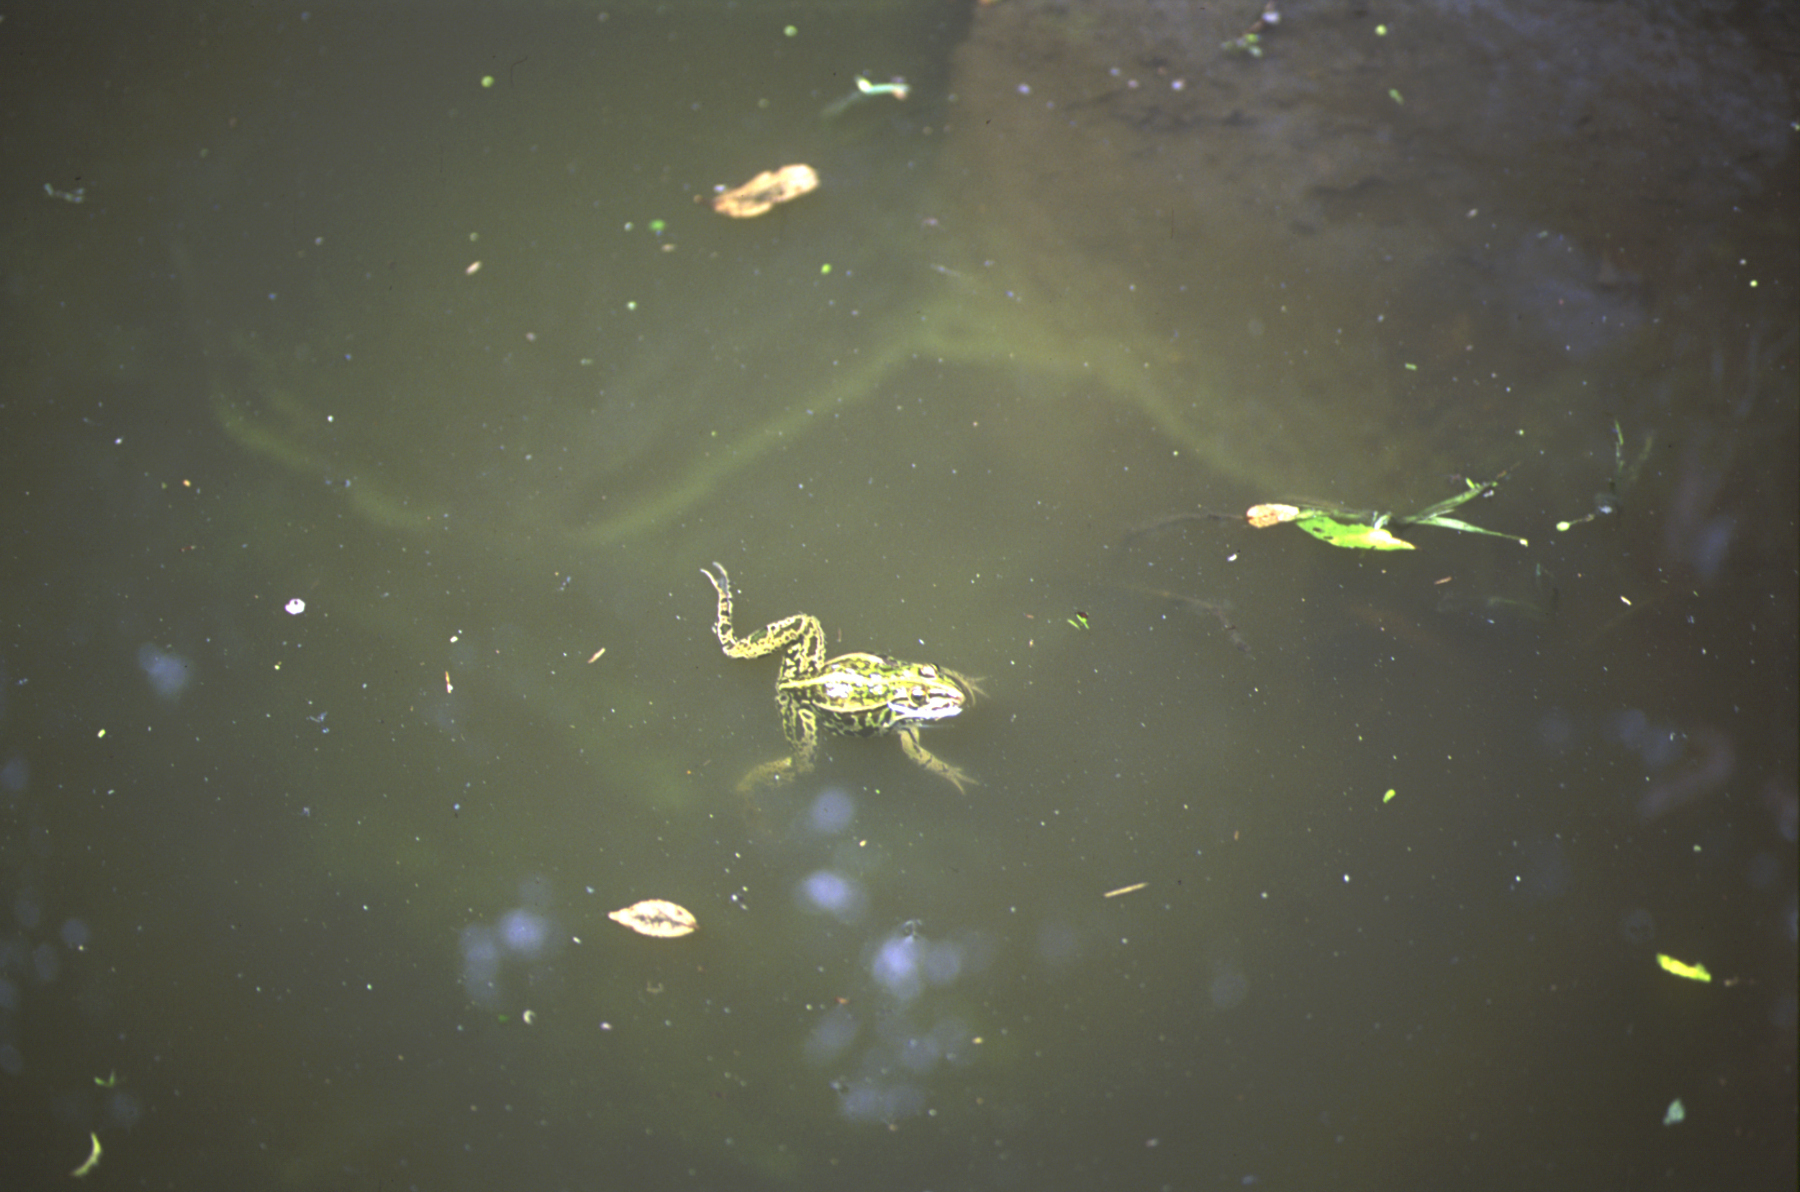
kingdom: Animalia
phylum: Chordata
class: Amphibia
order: Anura
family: Ranidae
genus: Pelophylax
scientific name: Pelophylax nigromaculatus
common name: Black-spotted pond frog
